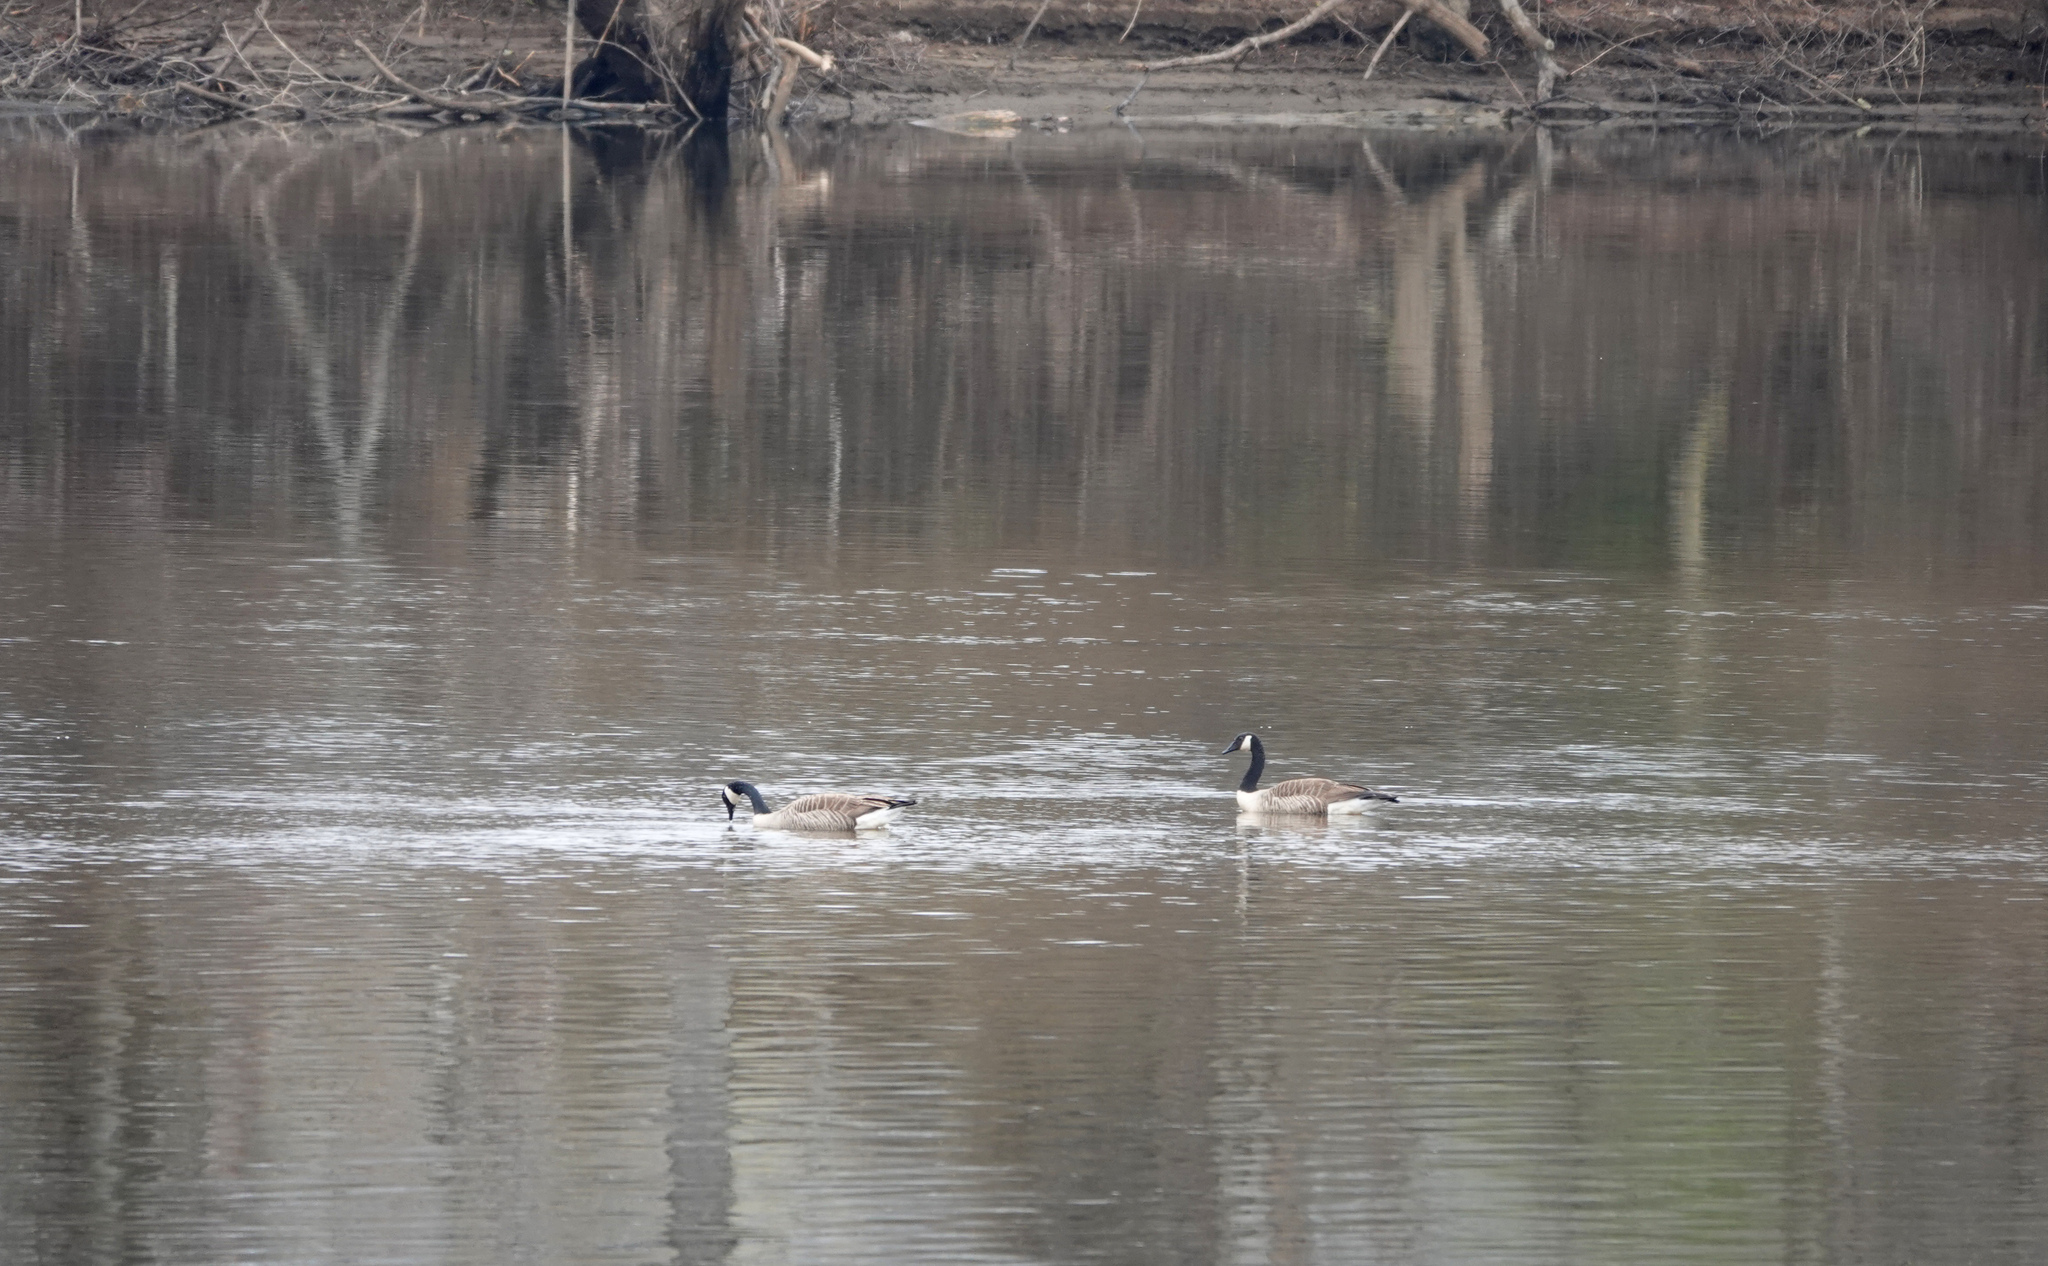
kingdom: Animalia
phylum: Chordata
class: Aves
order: Anseriformes
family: Anatidae
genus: Branta
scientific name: Branta canadensis
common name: Canada goose
